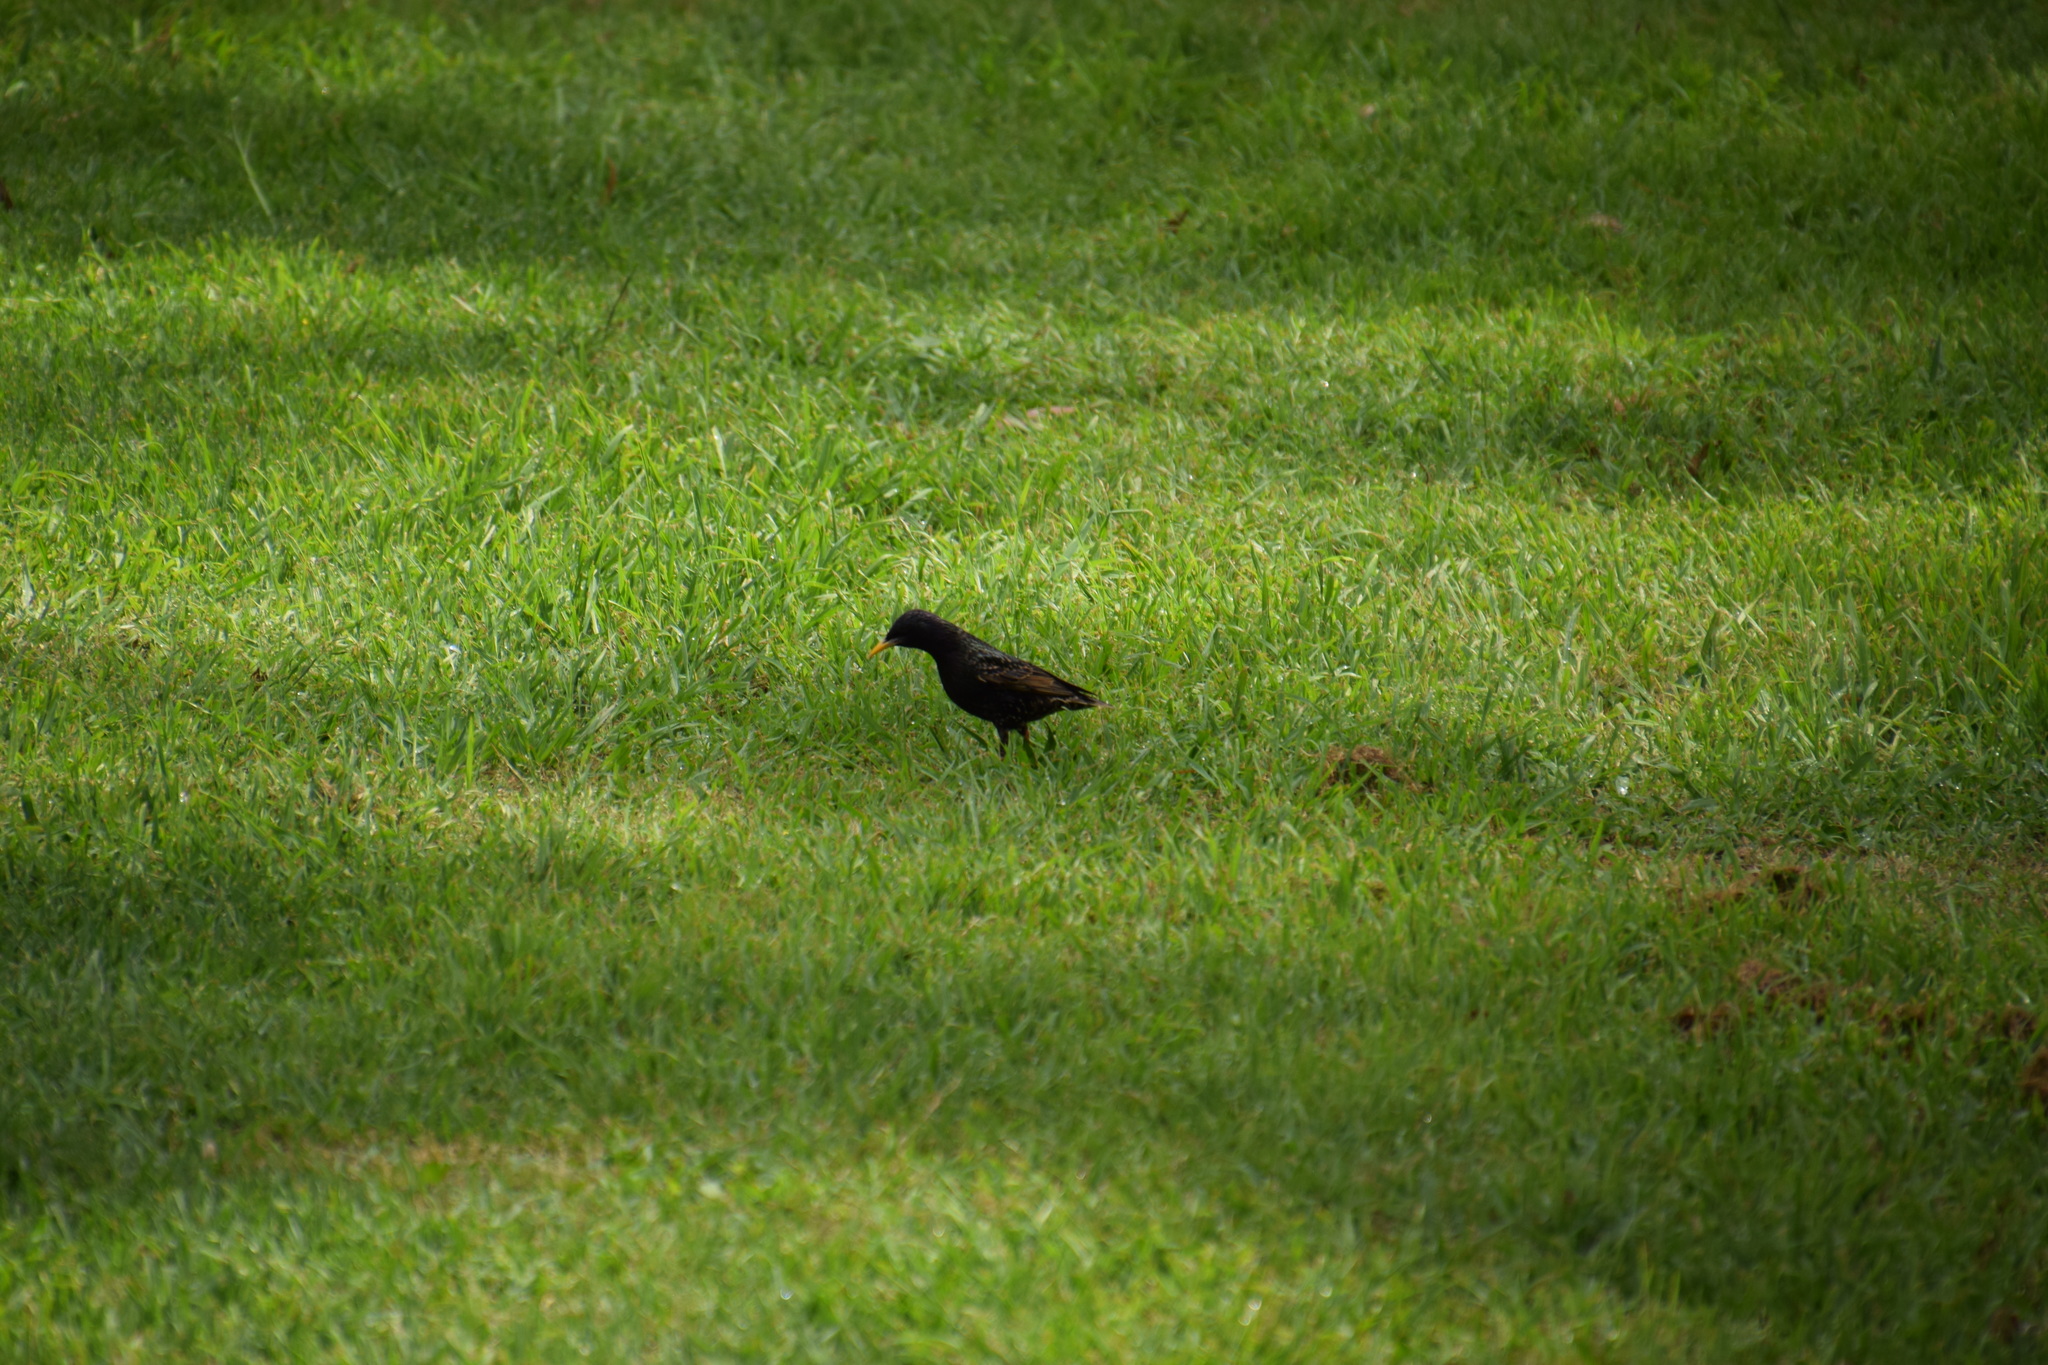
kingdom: Animalia
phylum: Chordata
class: Aves
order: Passeriformes
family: Sturnidae
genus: Sturnus
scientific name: Sturnus vulgaris
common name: Common starling
